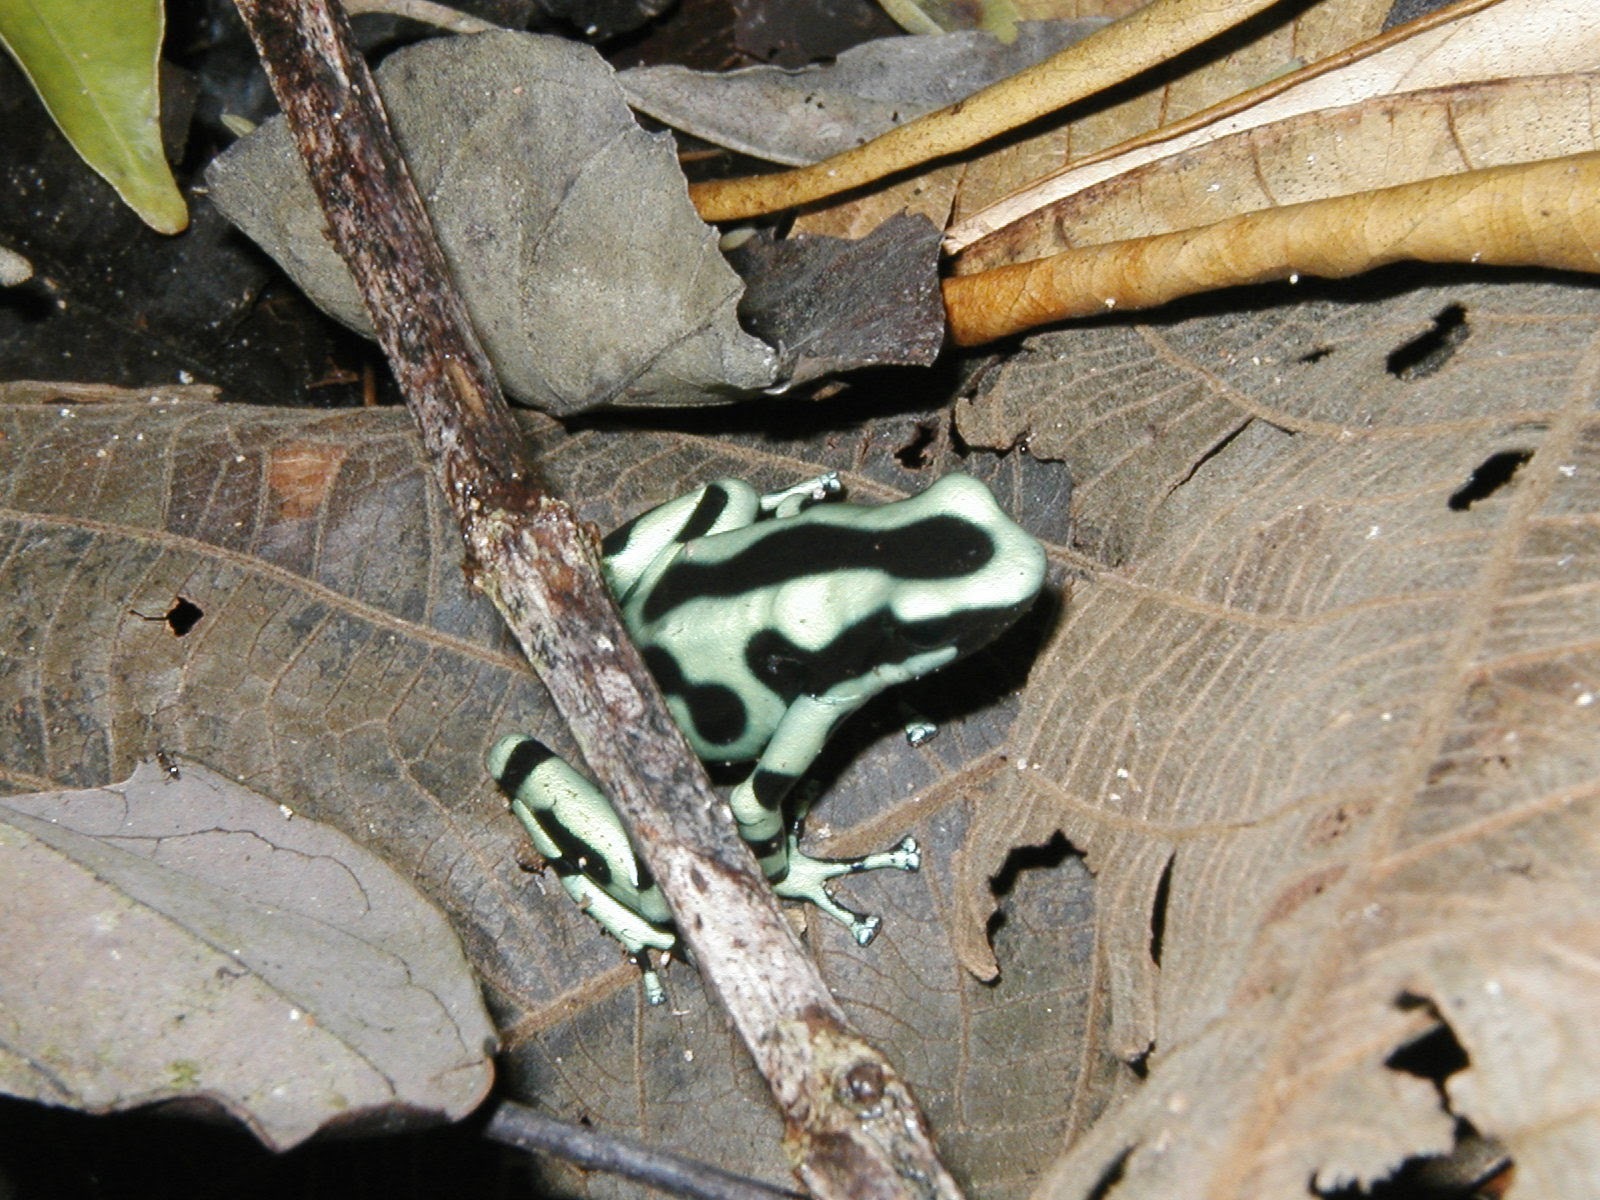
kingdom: Animalia
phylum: Chordata
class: Amphibia
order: Anura
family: Dendrobatidae
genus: Dendrobates
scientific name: Dendrobates auratus
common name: Green and black poison dart frog
